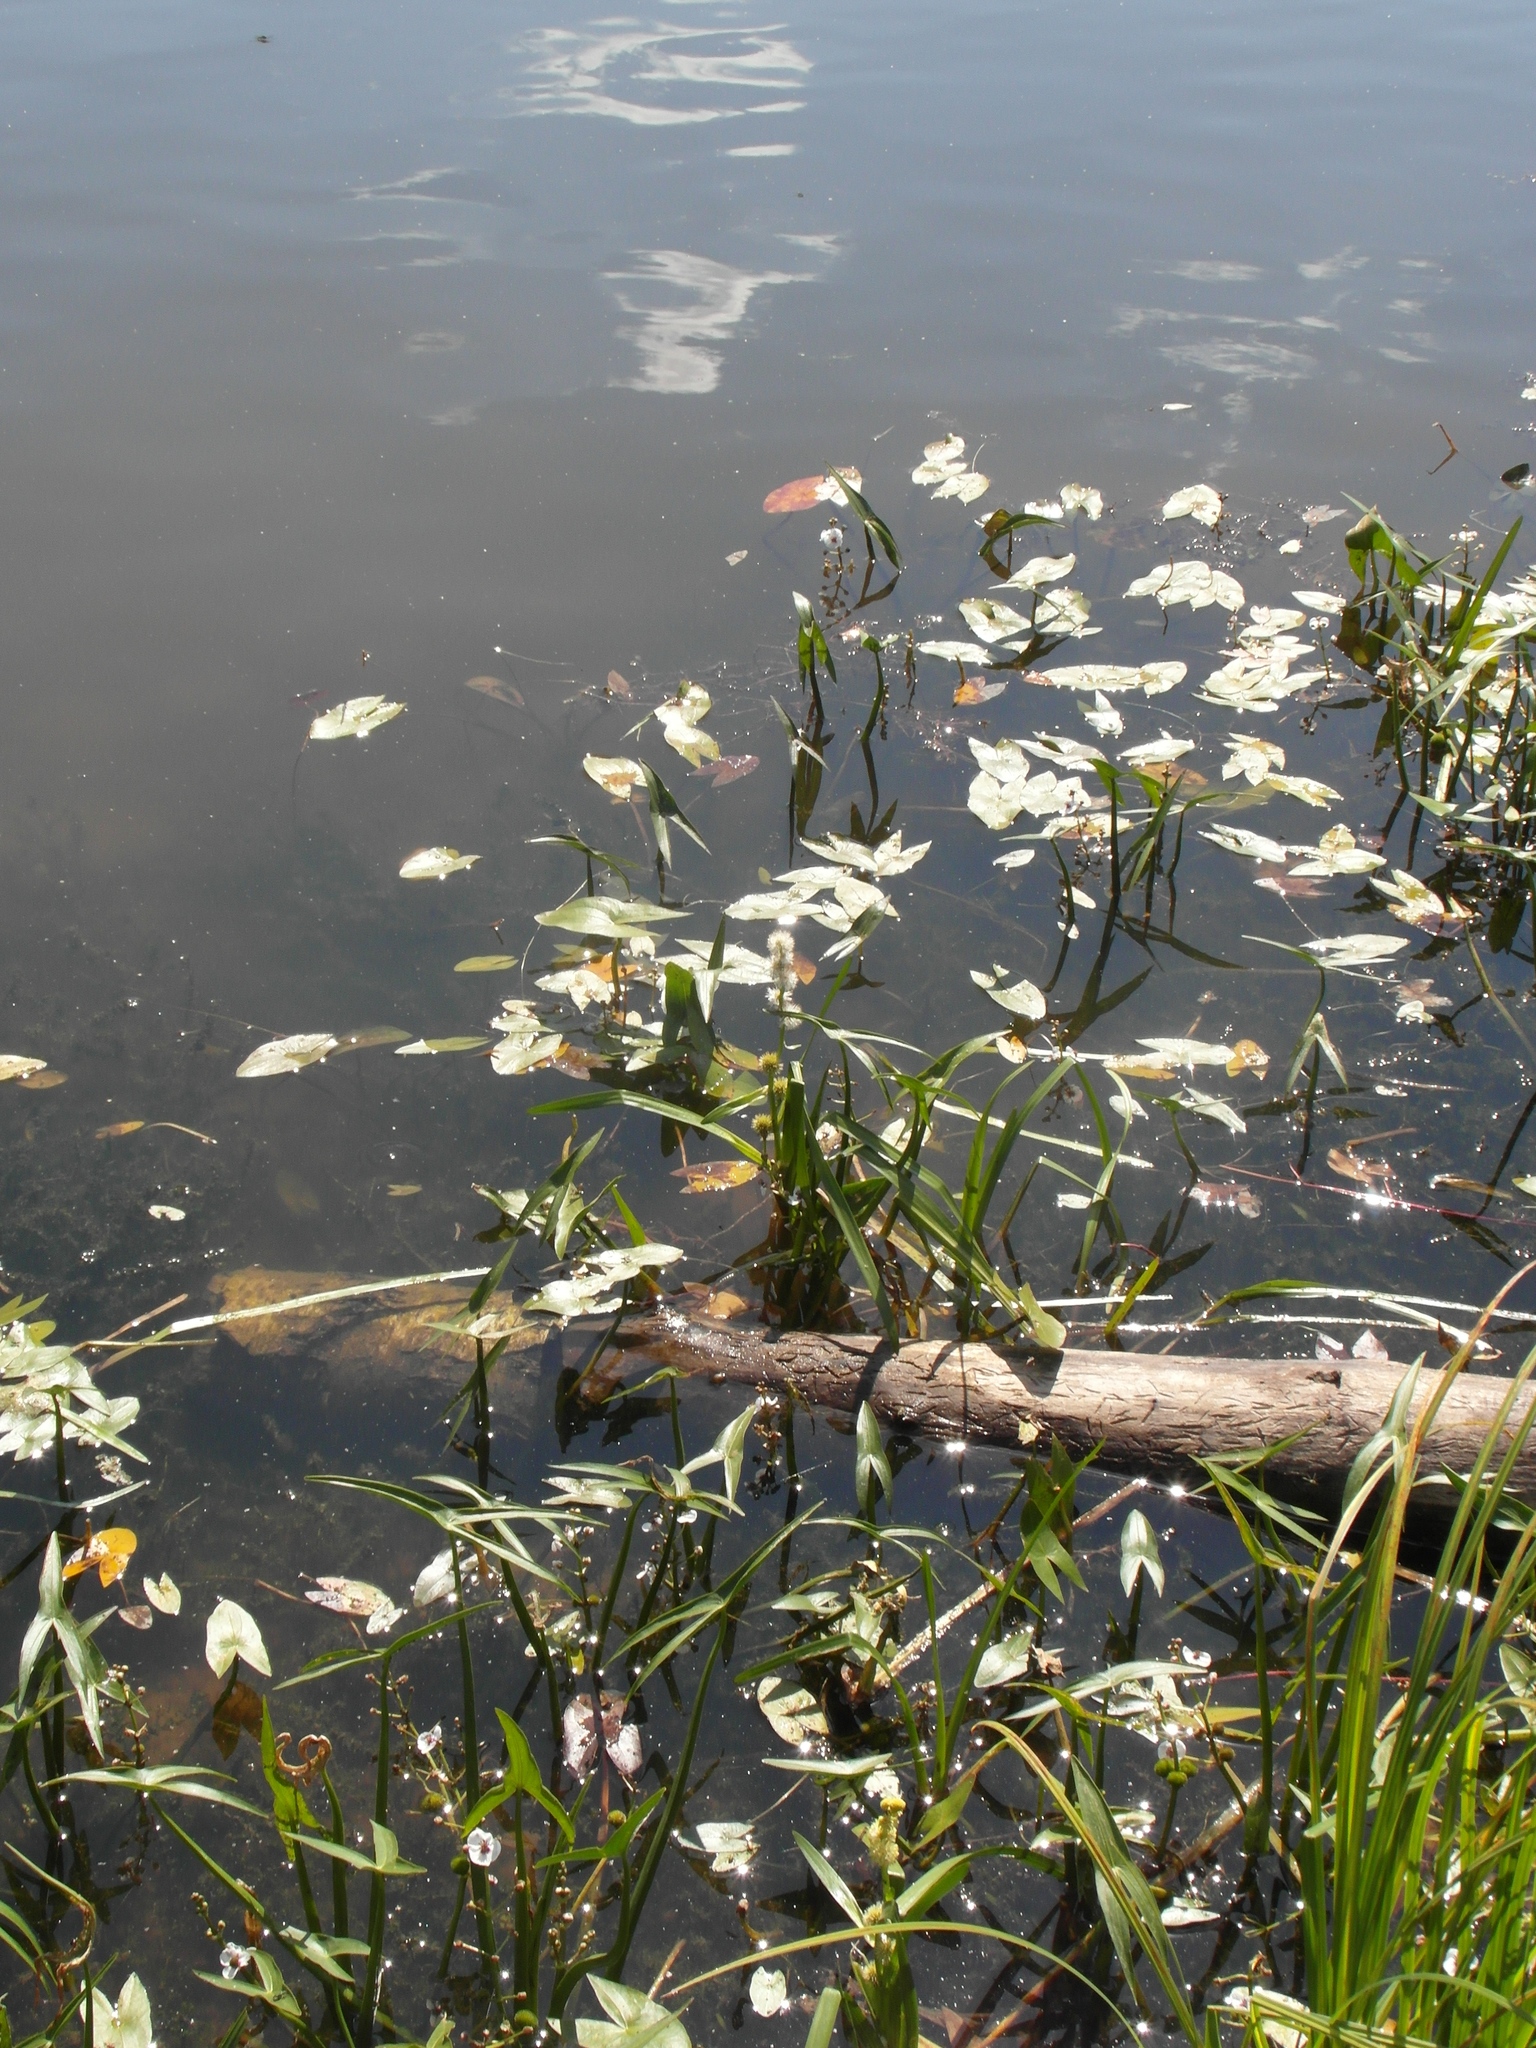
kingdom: Plantae
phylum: Tracheophyta
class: Liliopsida
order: Alismatales
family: Alismataceae
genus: Sagittaria
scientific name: Sagittaria sagittifolia
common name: Arrowhead
